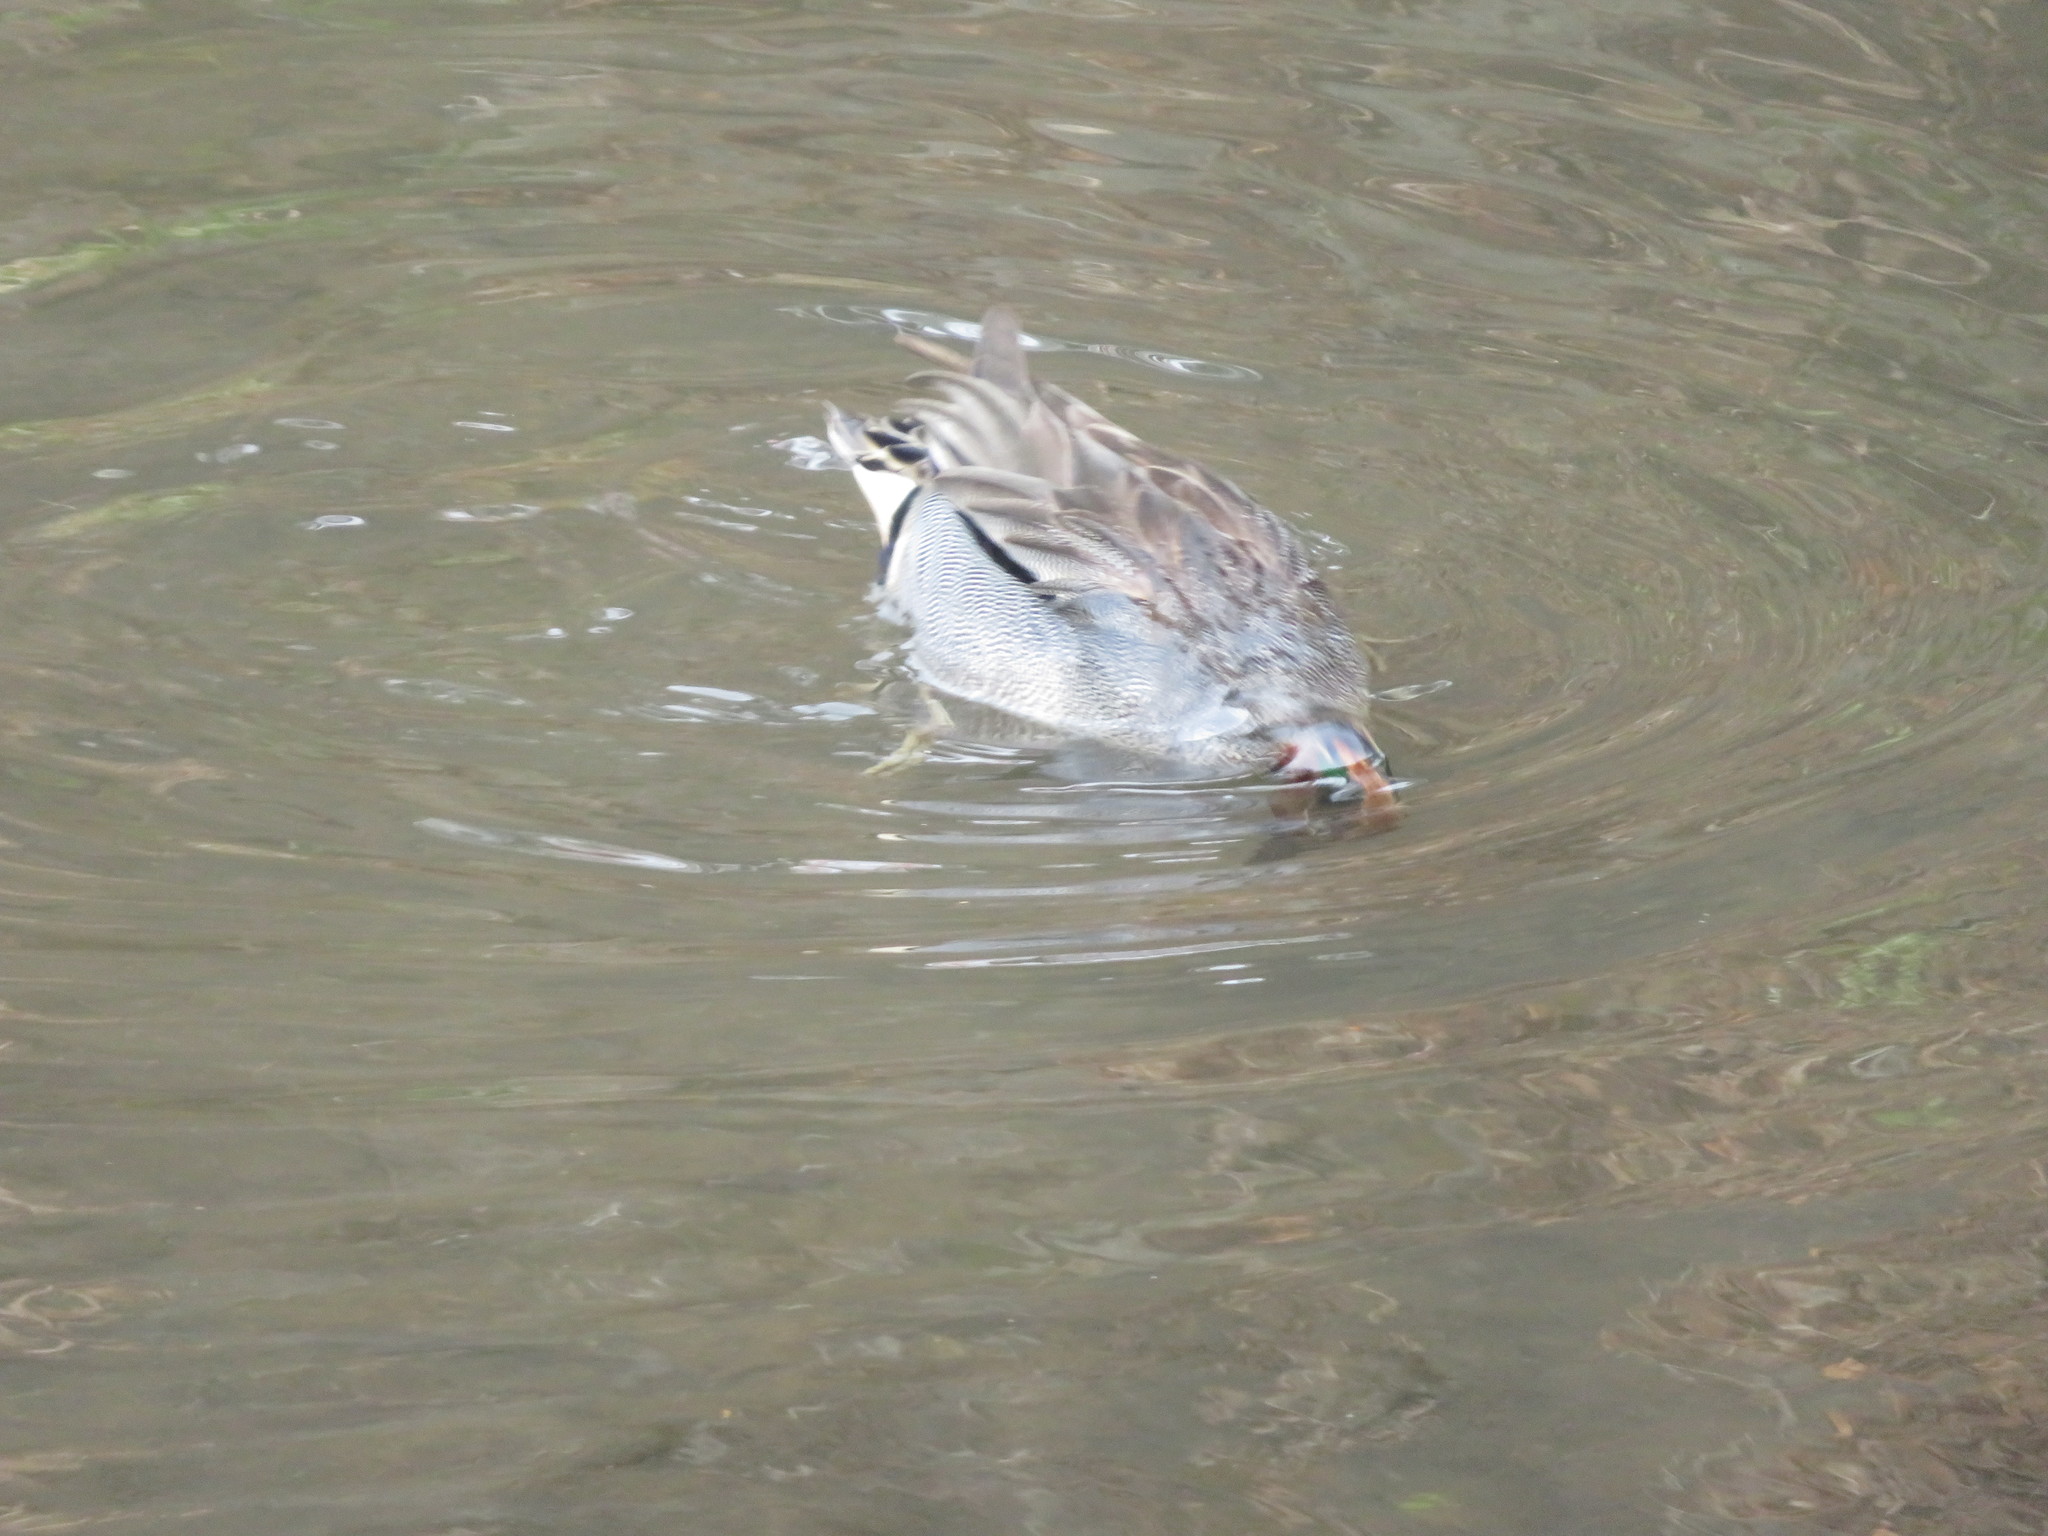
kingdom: Animalia
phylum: Chordata
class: Aves
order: Anseriformes
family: Anatidae
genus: Anas
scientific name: Anas crecca
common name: Eurasian teal
